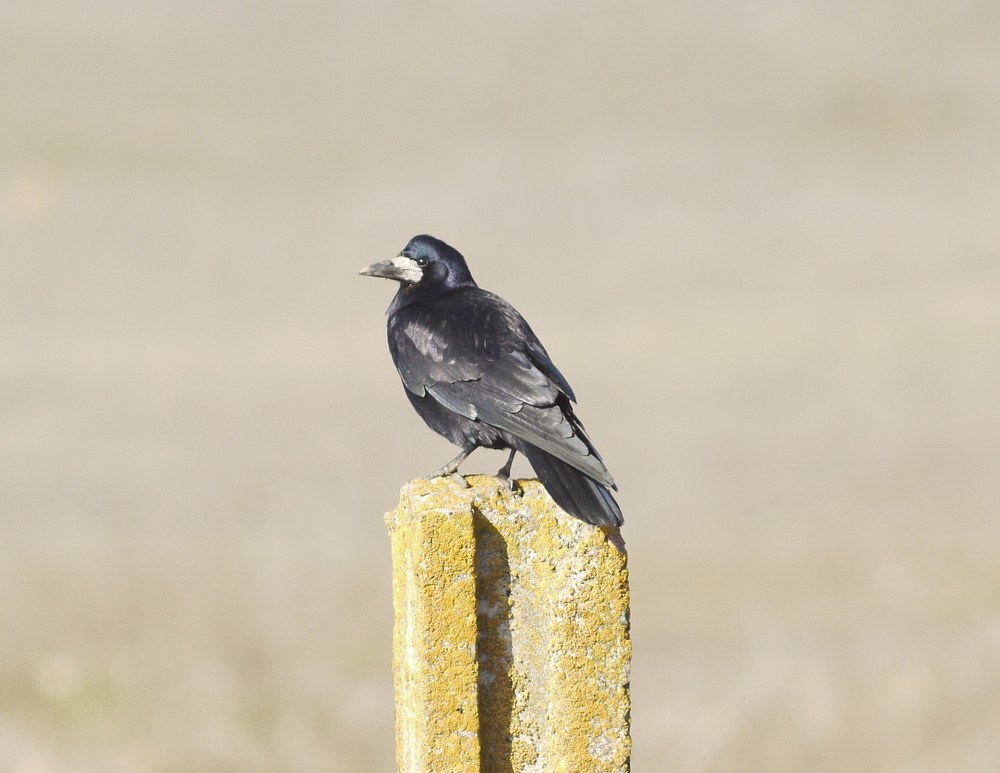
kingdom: Animalia
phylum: Chordata
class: Aves
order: Passeriformes
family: Corvidae
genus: Corvus
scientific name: Corvus frugilegus
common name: Rook
